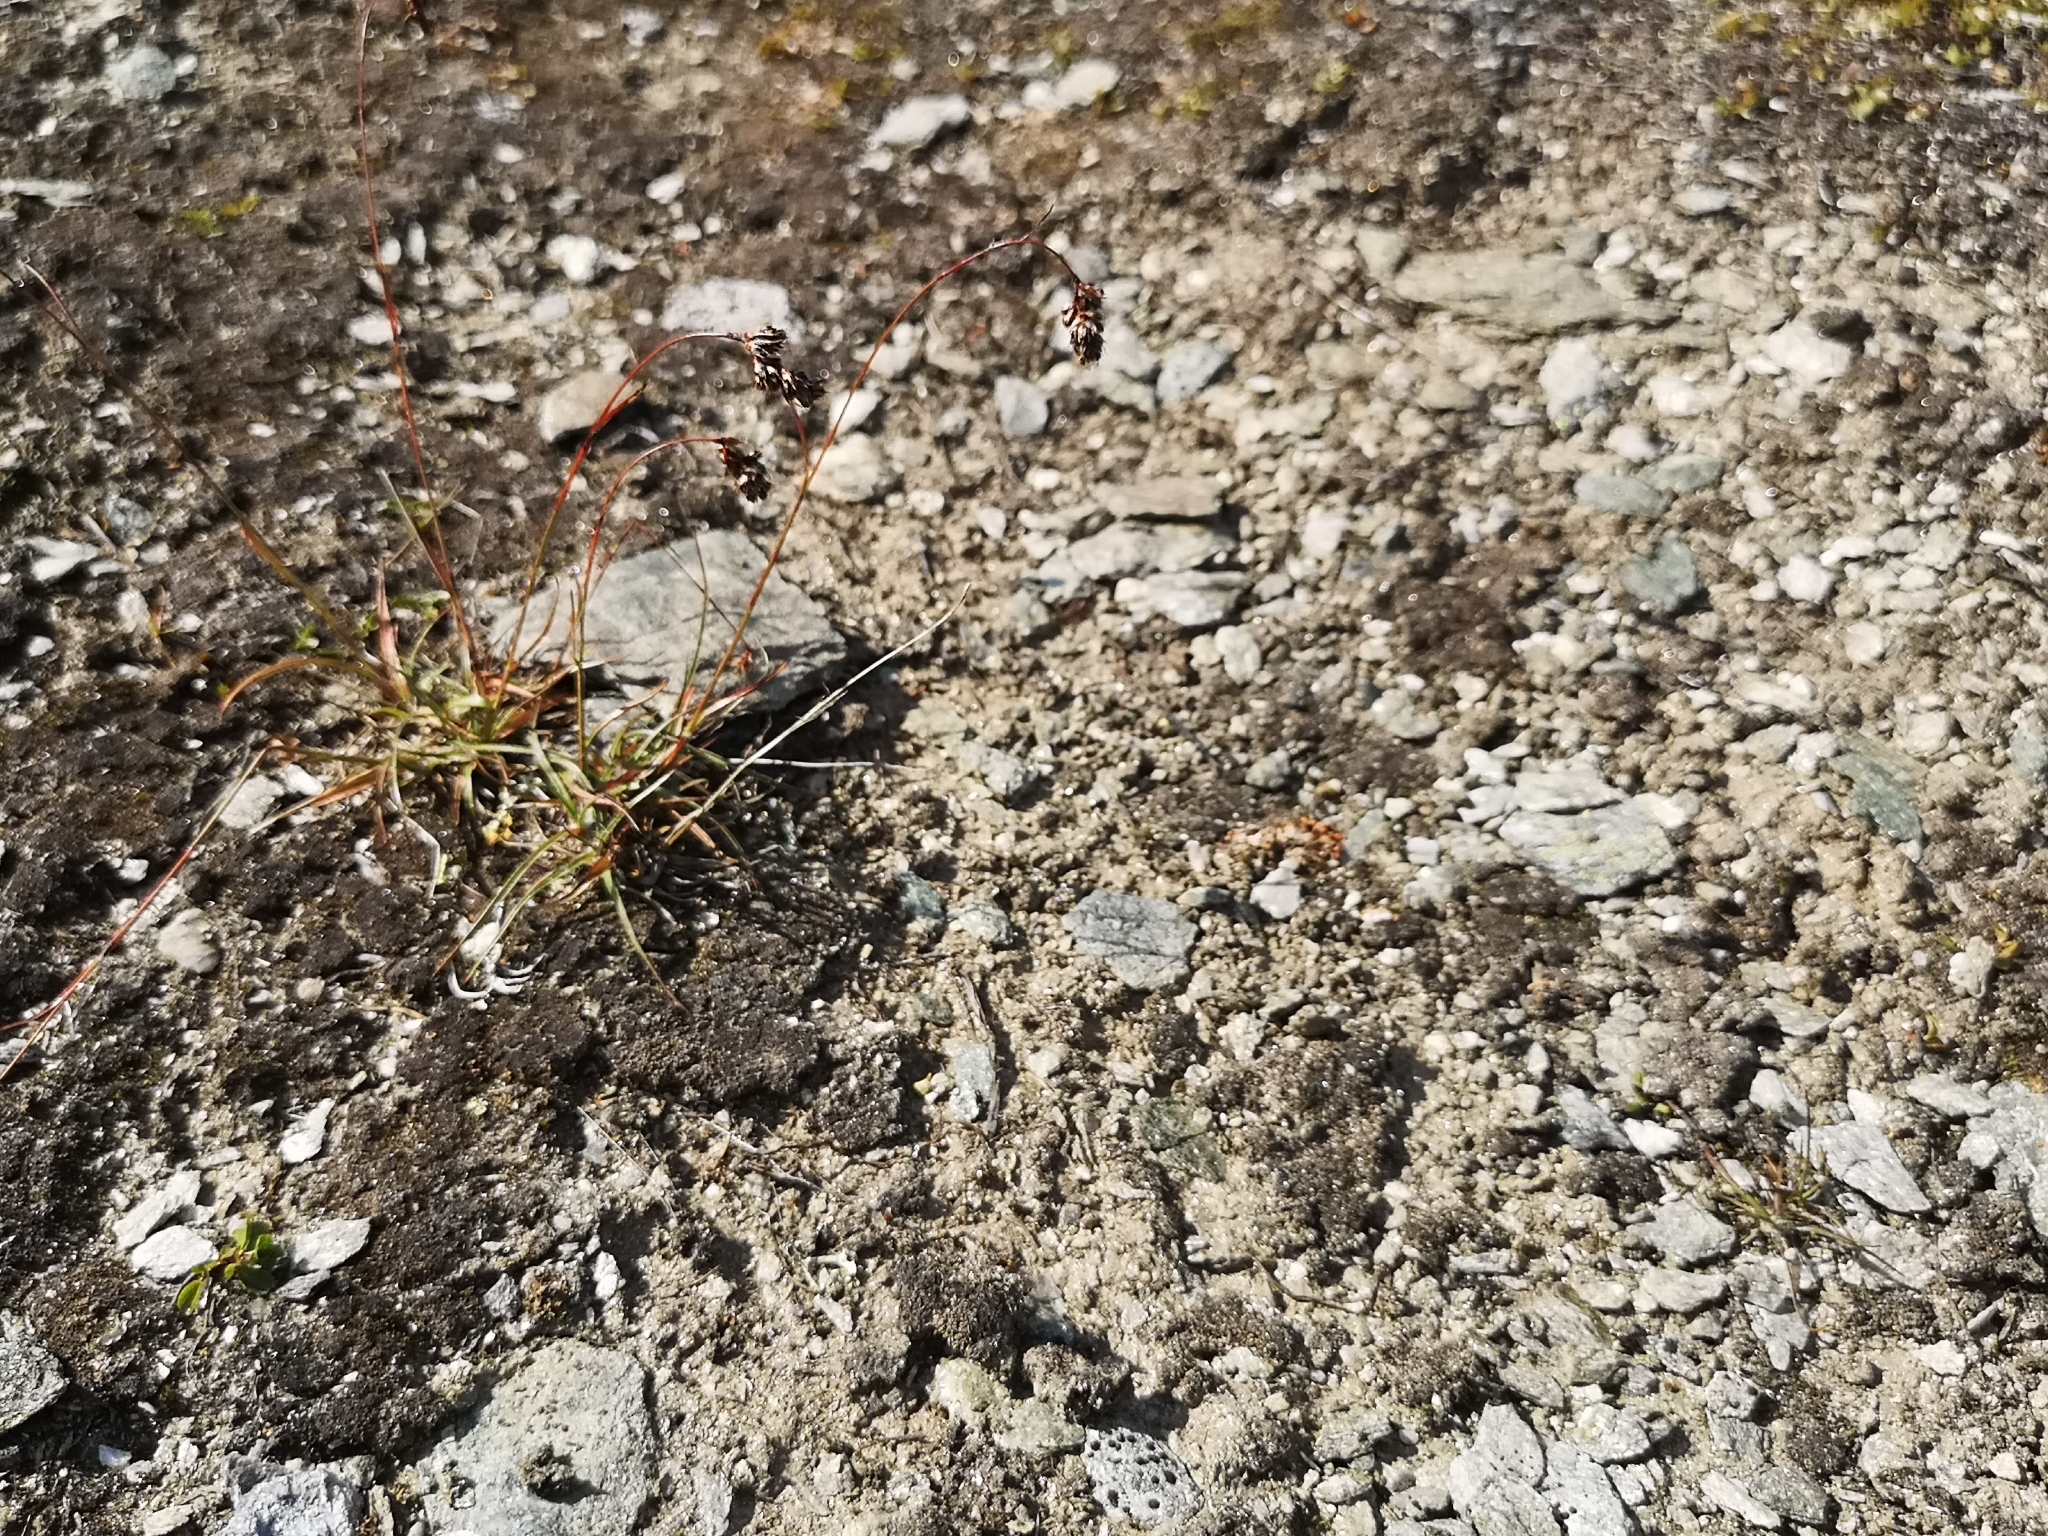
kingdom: Plantae
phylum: Tracheophyta
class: Liliopsida
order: Poales
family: Juncaceae
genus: Luzula
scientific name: Luzula spicata
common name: Spiked wood-rush
